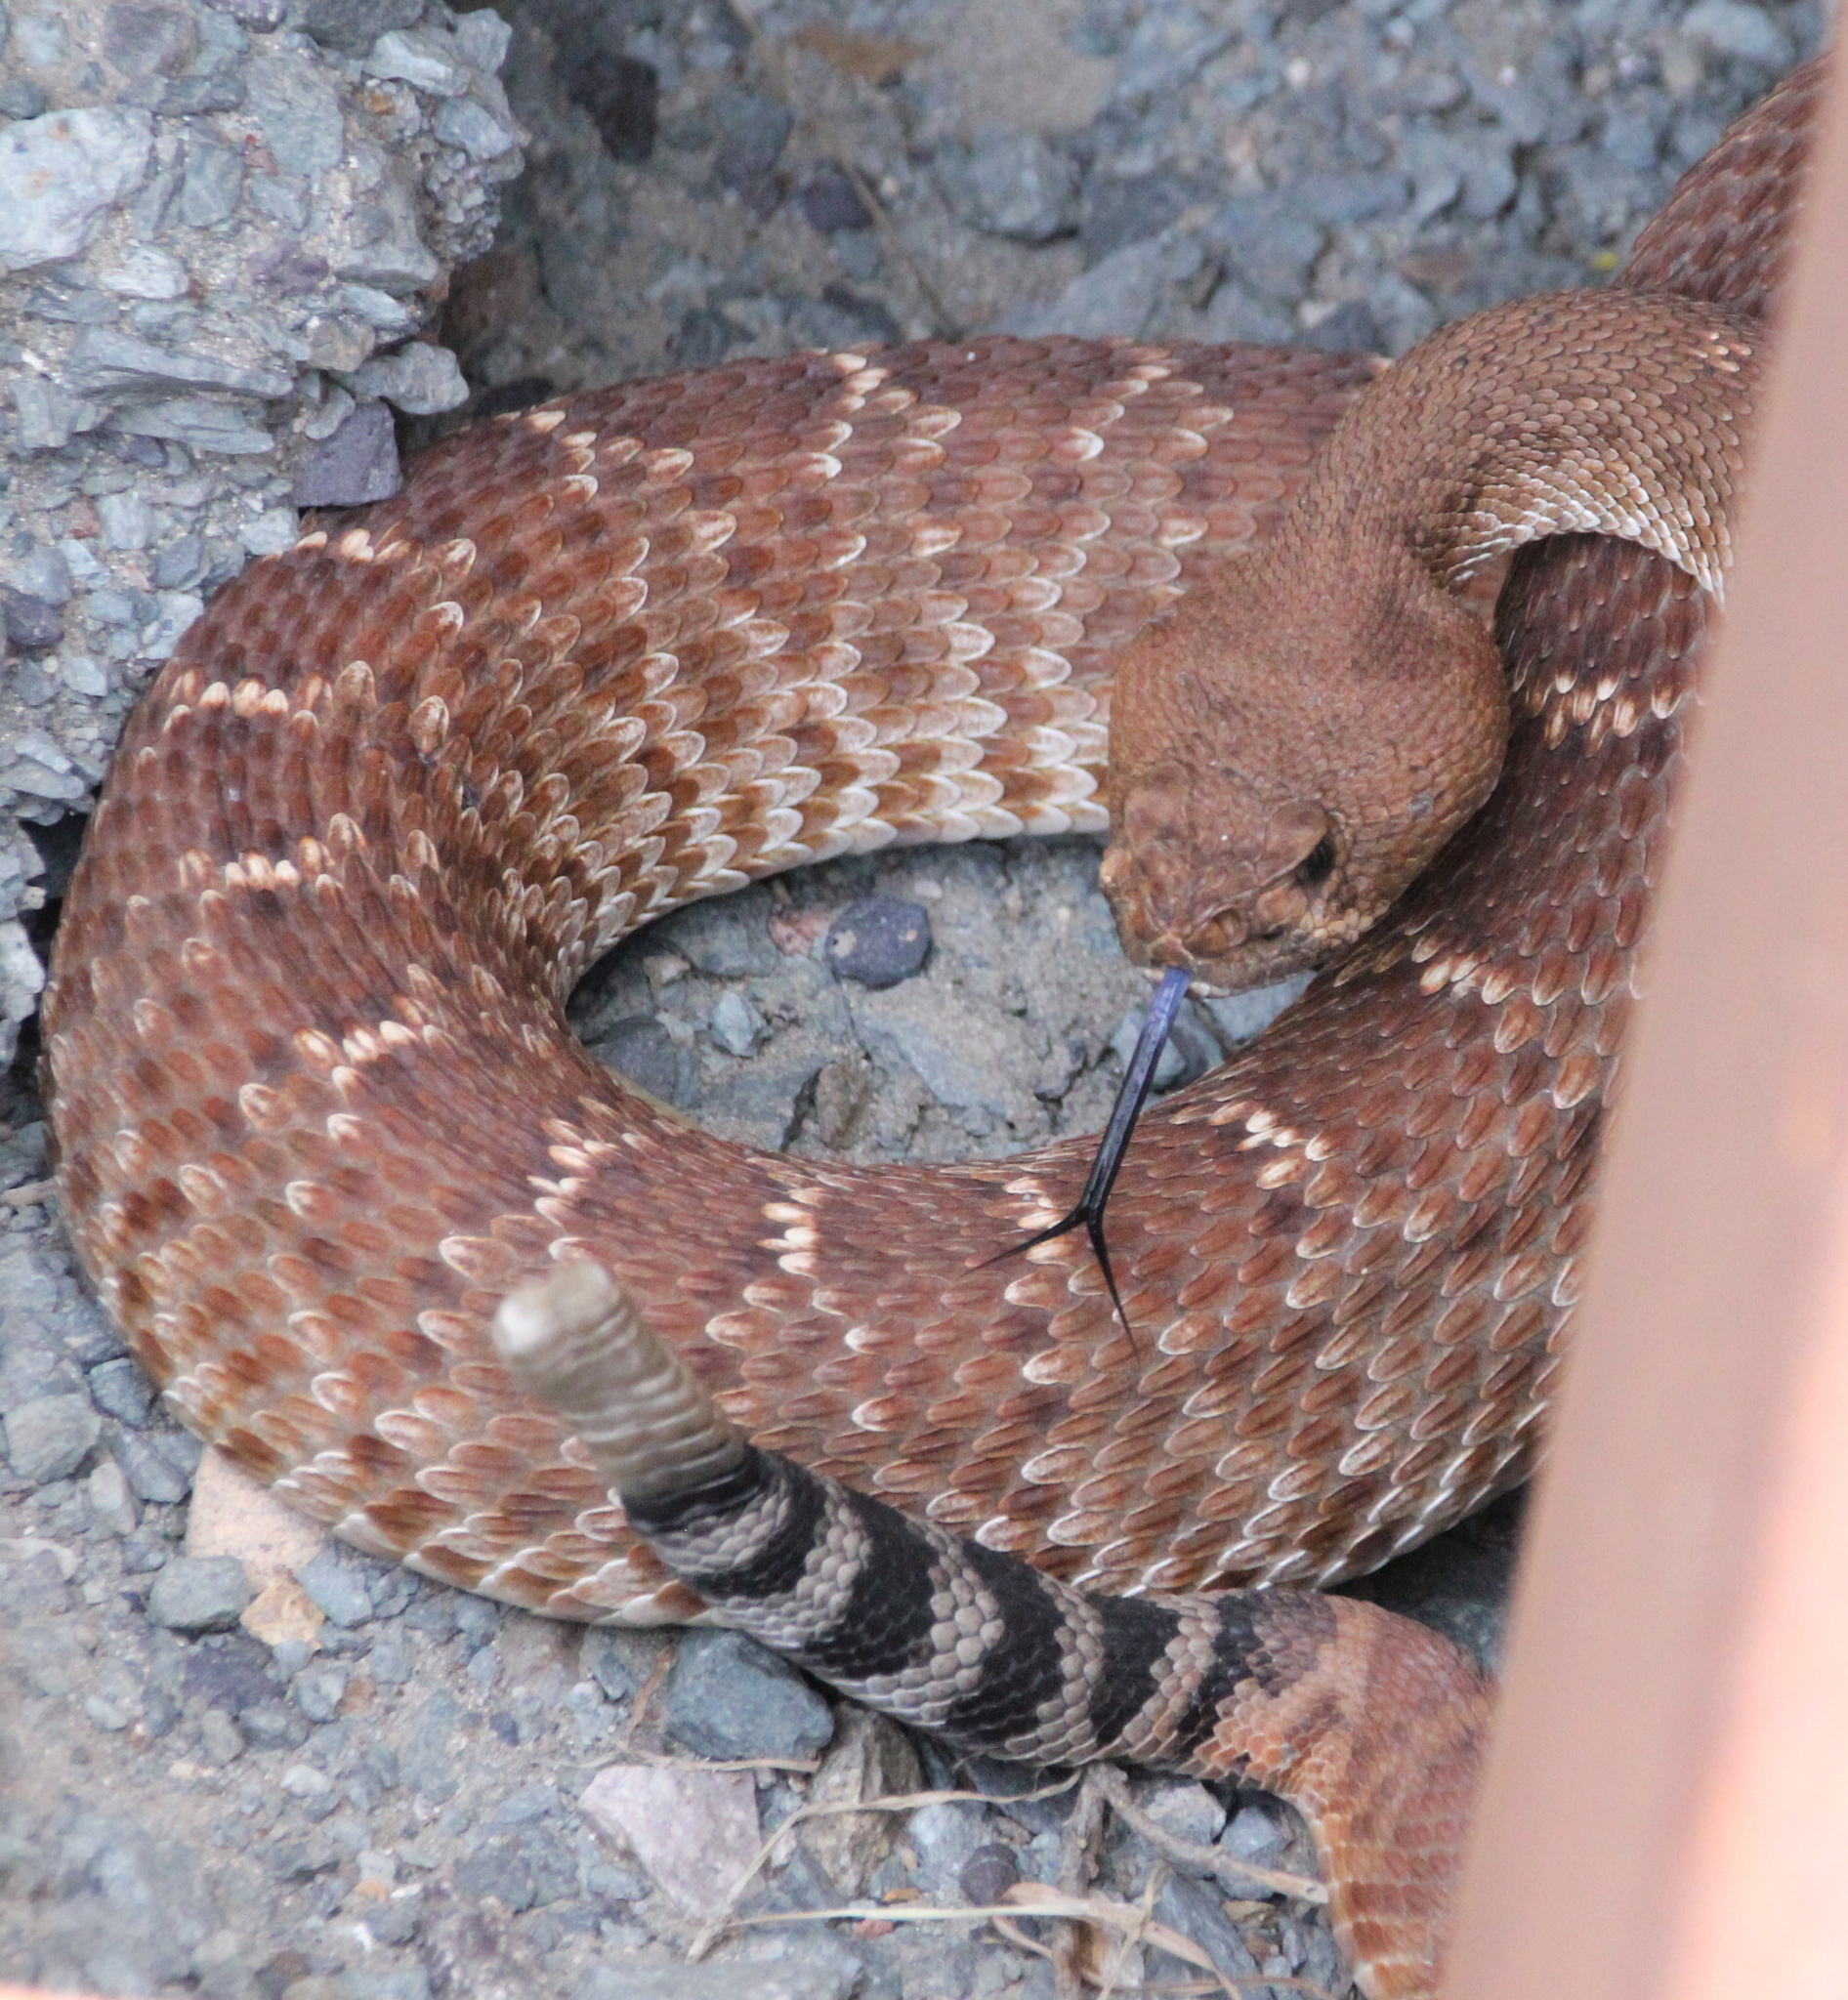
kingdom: Animalia
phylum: Chordata
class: Squamata
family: Viperidae
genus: Crotalus
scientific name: Crotalus ruber
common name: Red diamond rattlesnake
